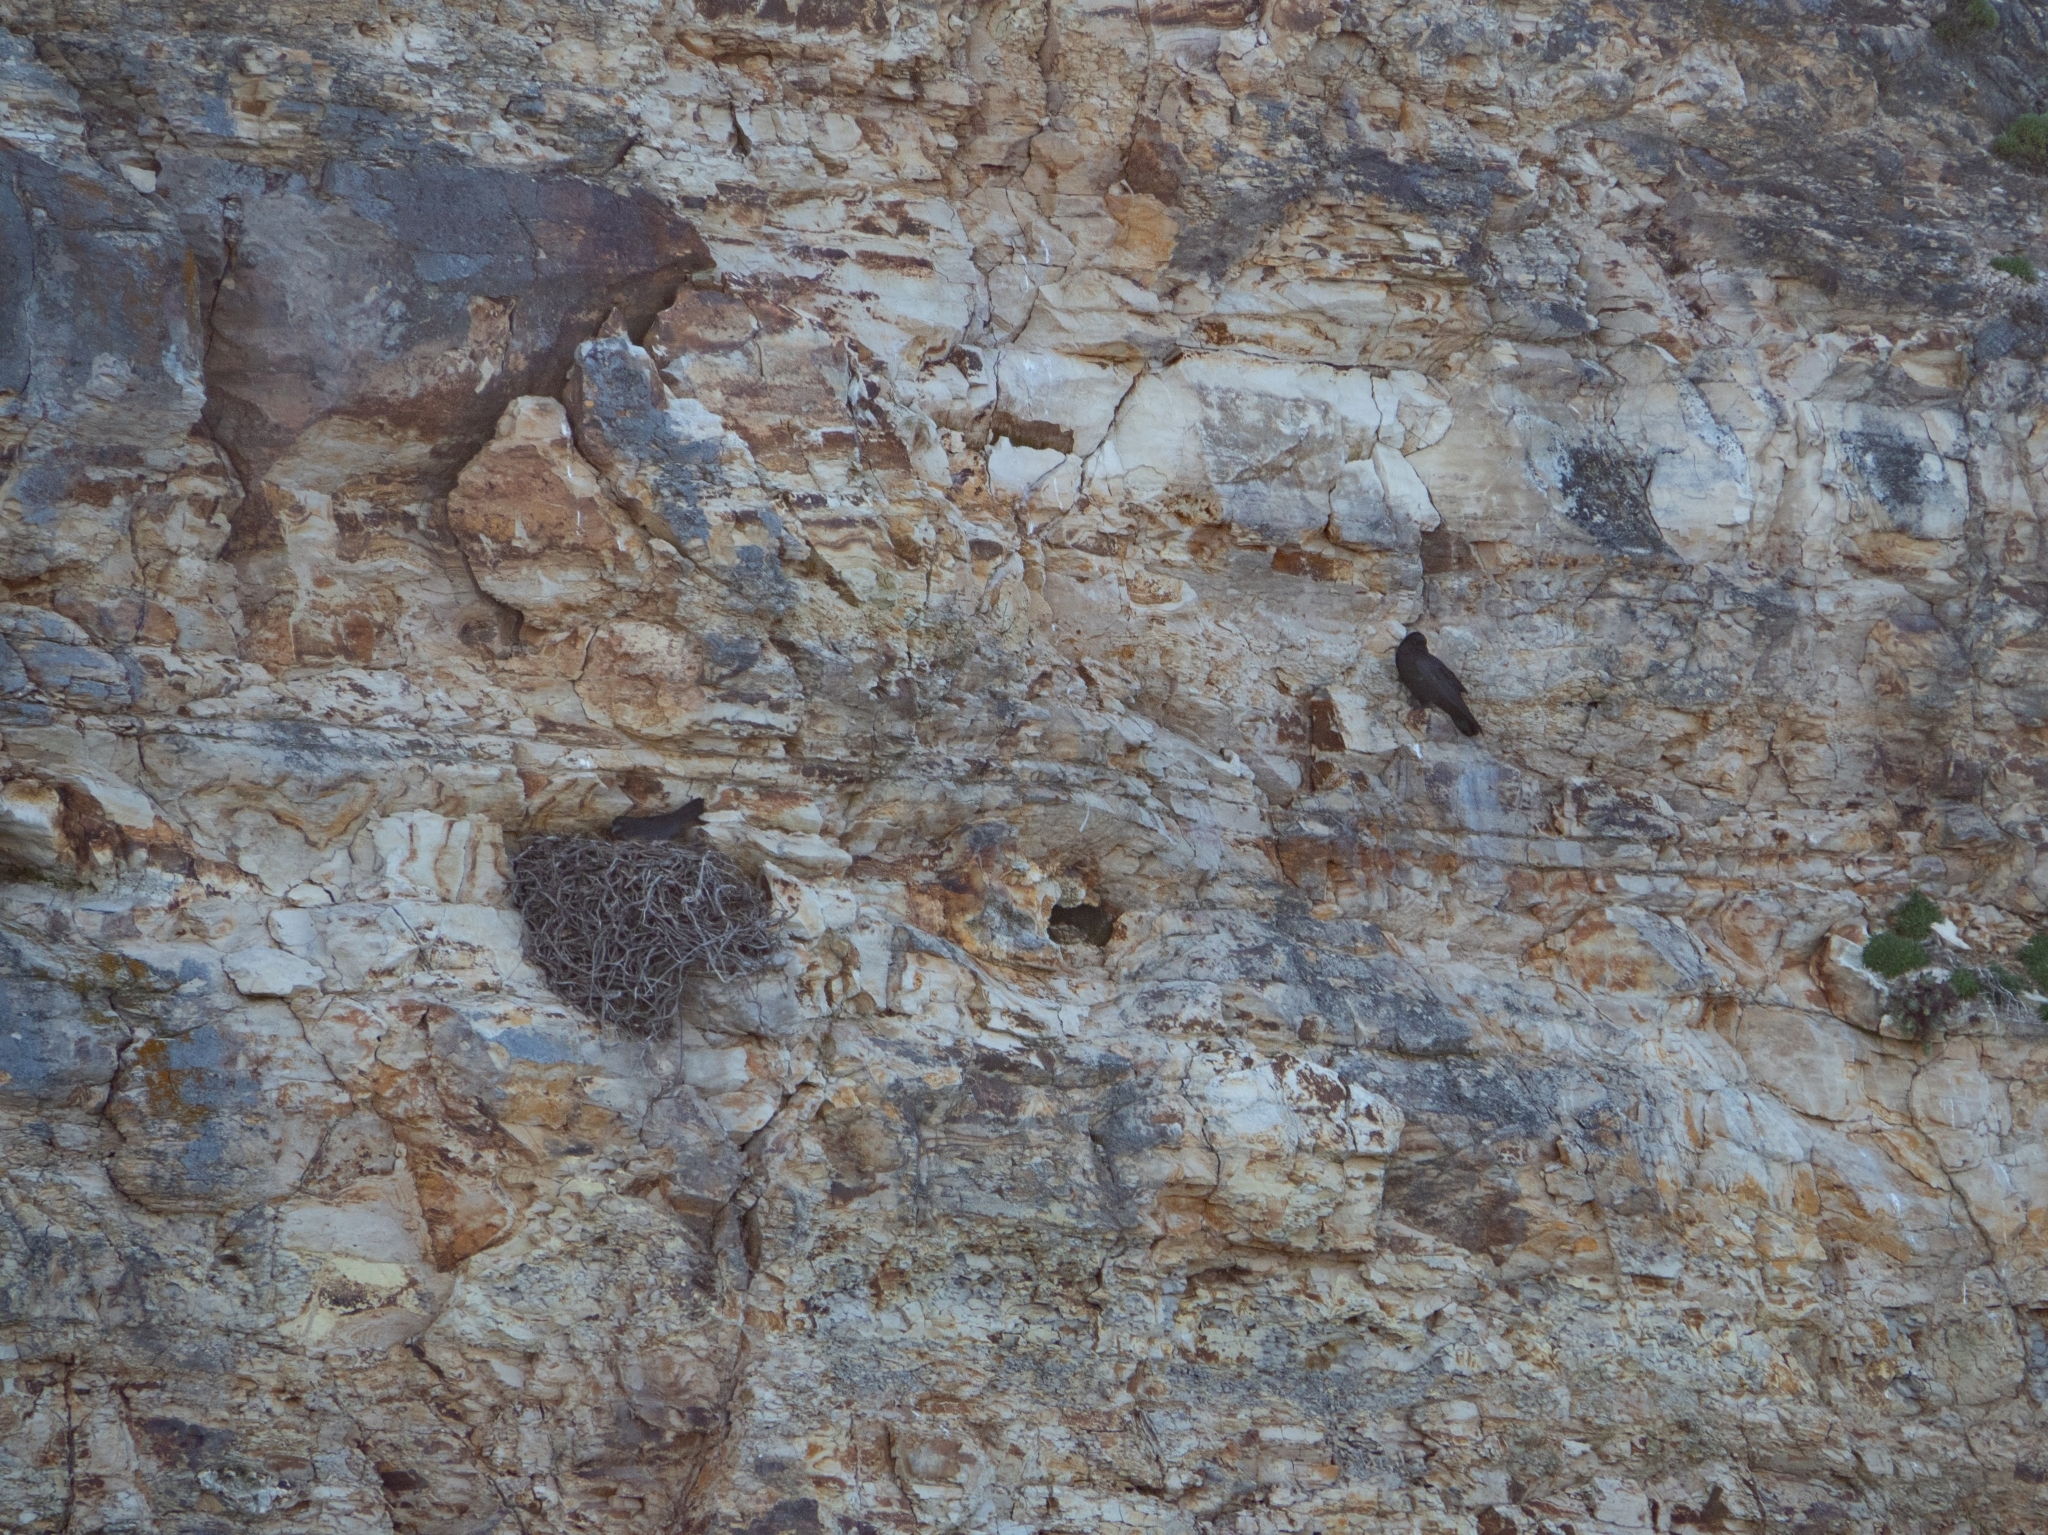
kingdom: Animalia
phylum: Chordata
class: Aves
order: Passeriformes
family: Corvidae
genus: Corvus
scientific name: Corvus corax
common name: Common raven
